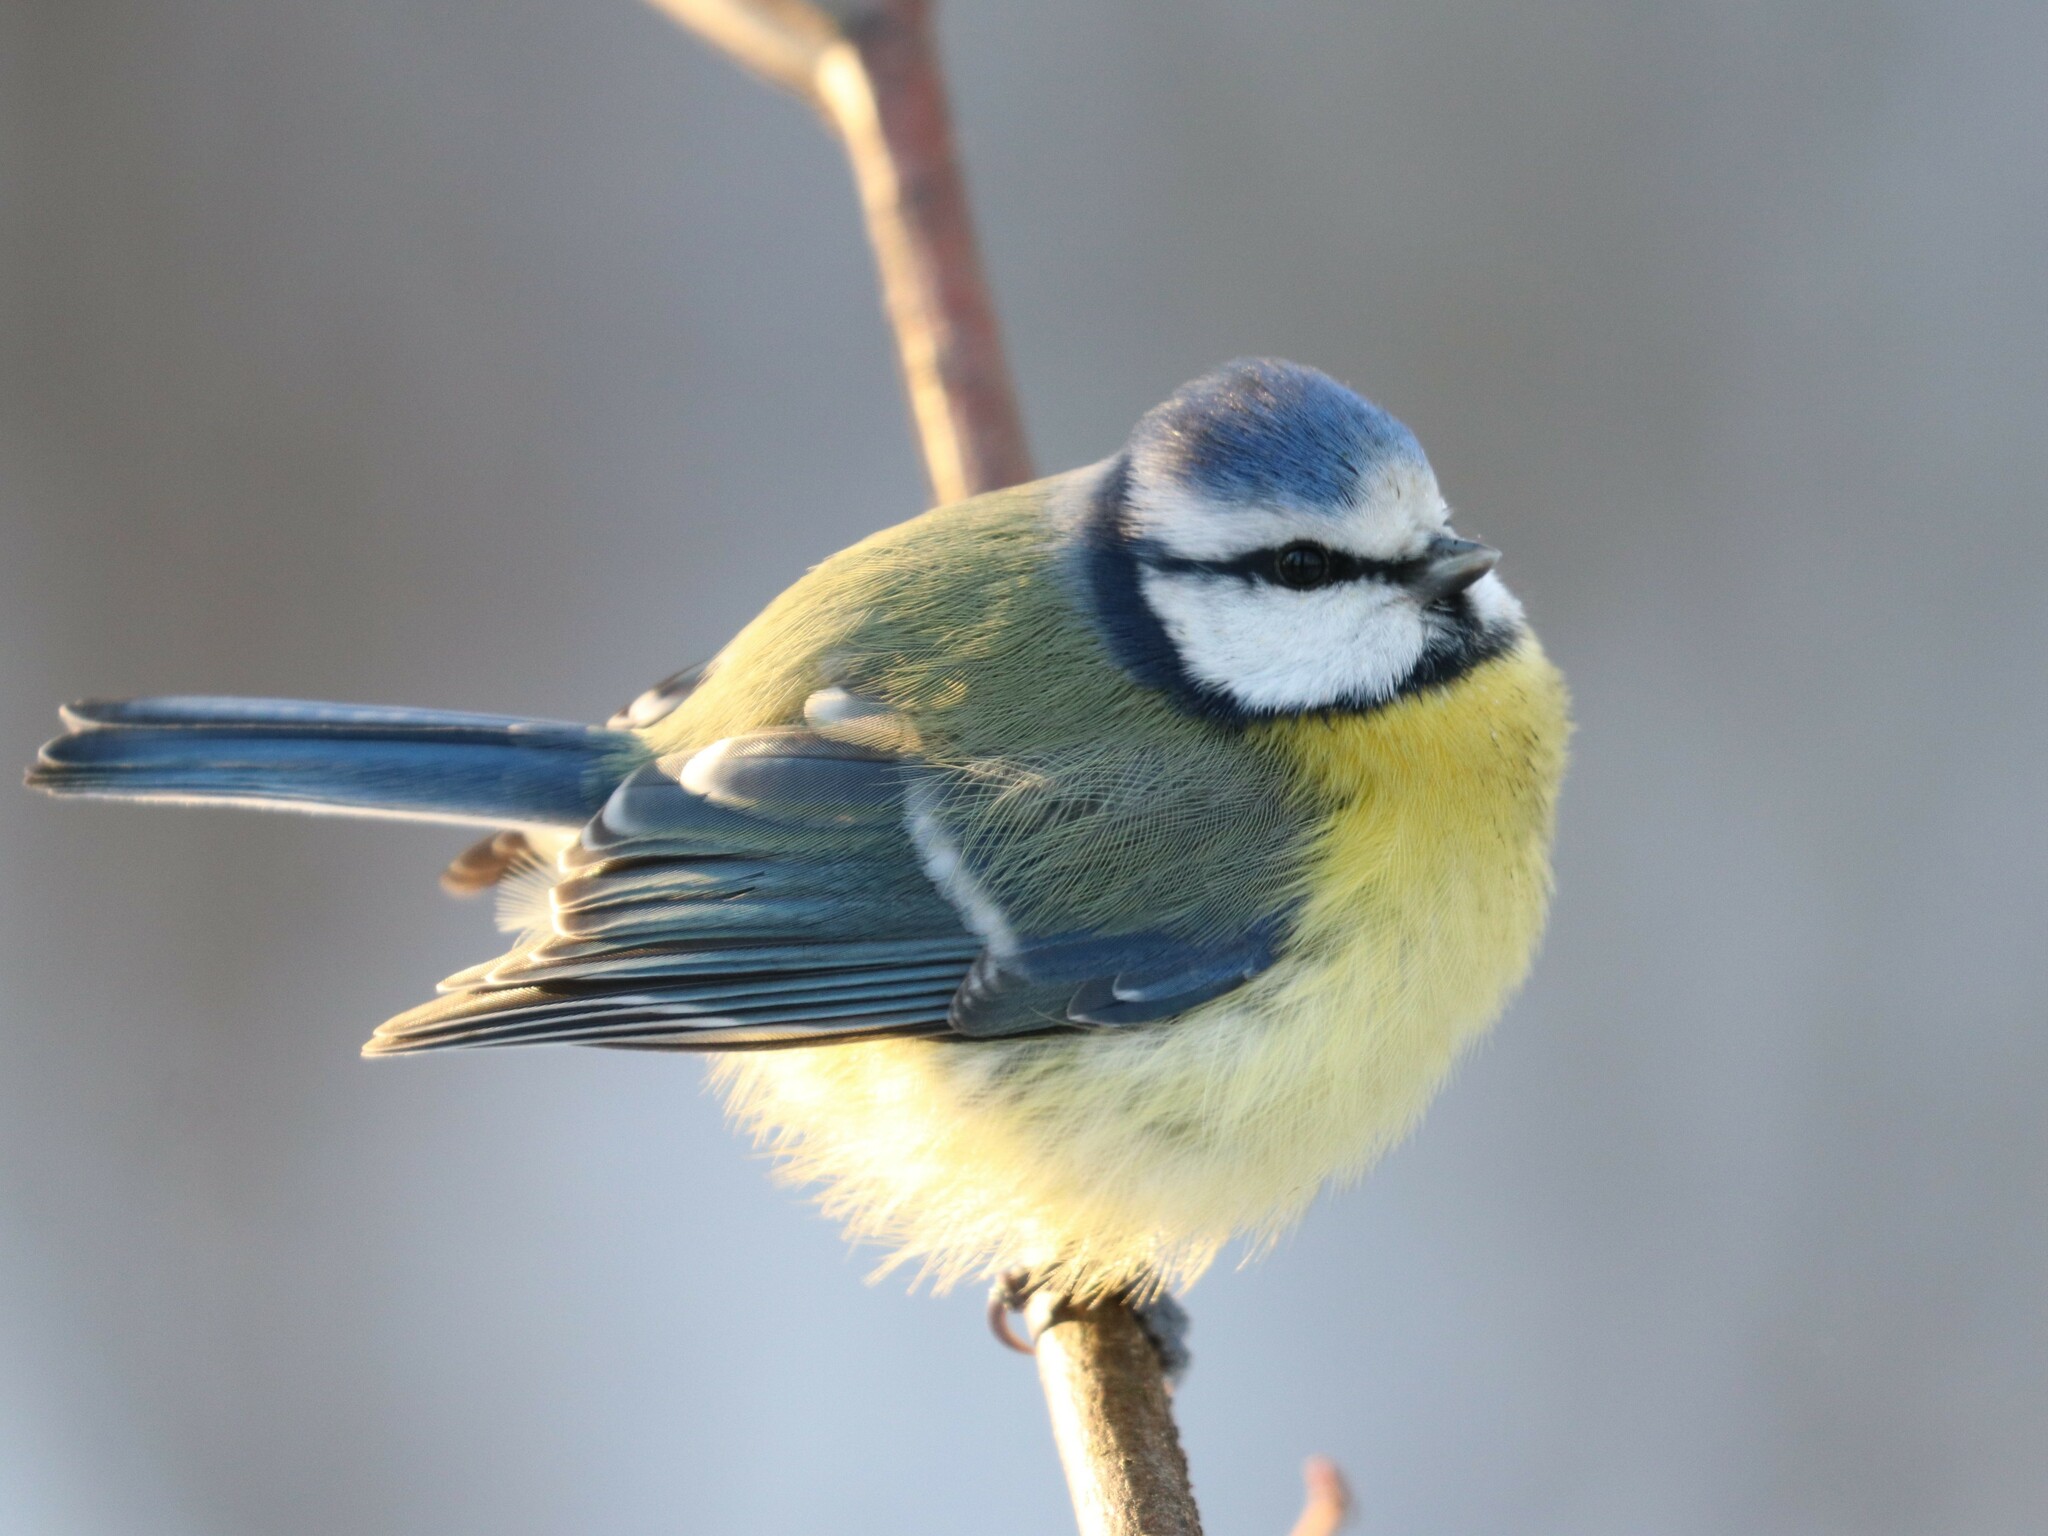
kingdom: Animalia
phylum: Chordata
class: Aves
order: Passeriformes
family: Paridae
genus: Cyanistes
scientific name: Cyanistes caeruleus
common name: Eurasian blue tit
